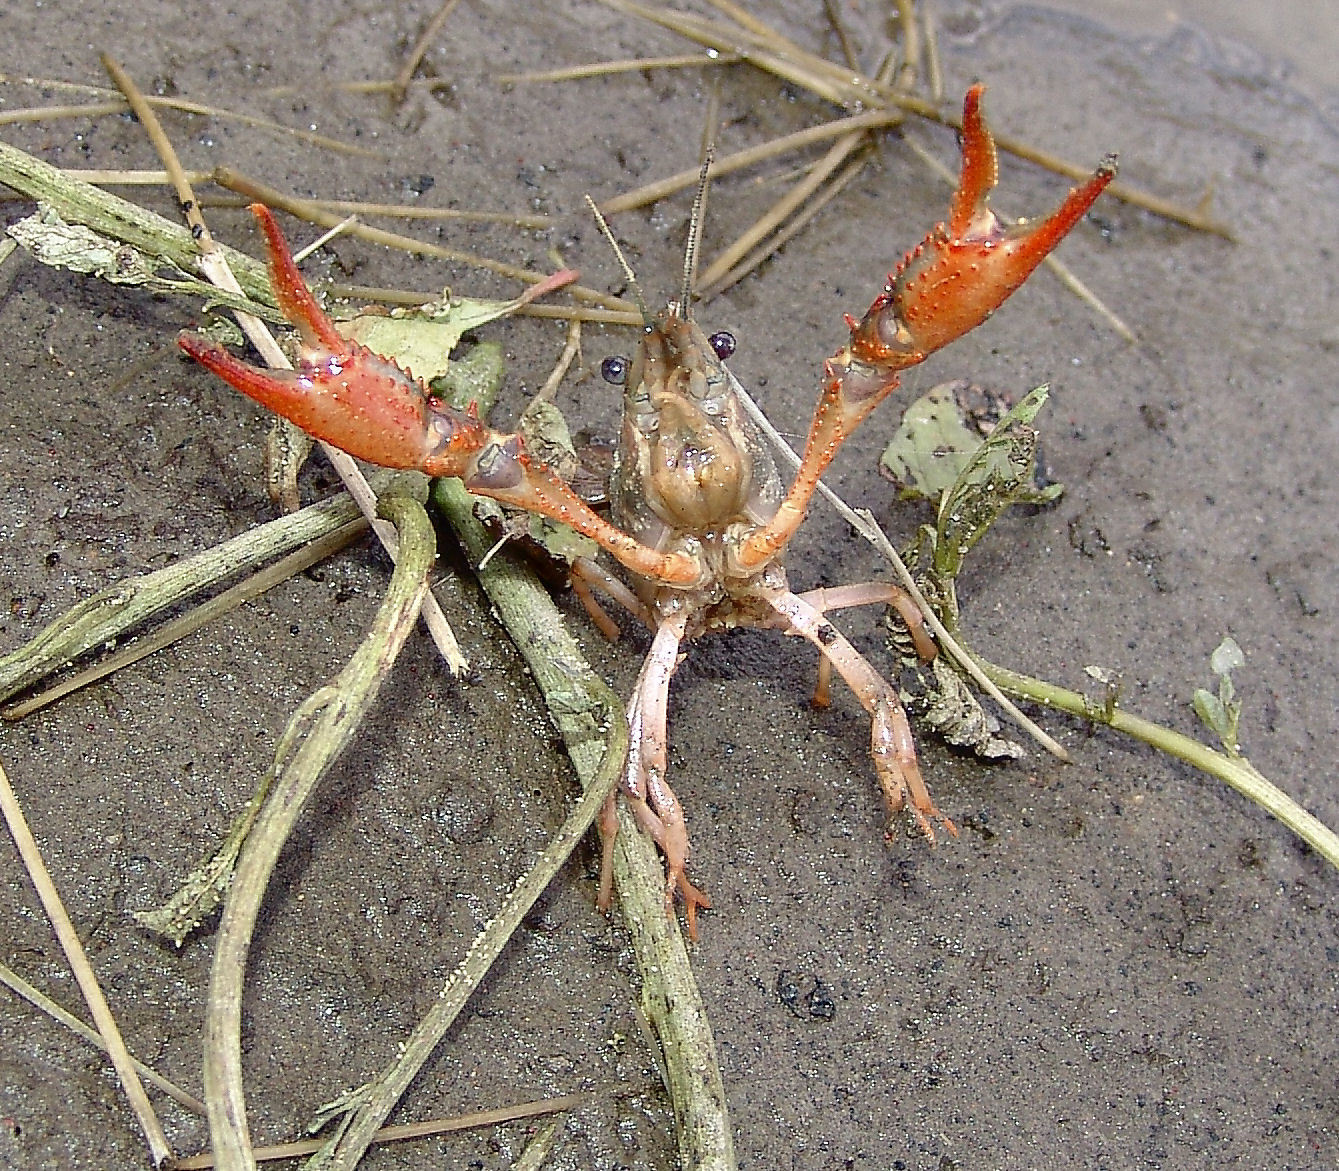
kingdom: Animalia
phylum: Arthropoda
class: Malacostraca
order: Decapoda
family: Cambaridae
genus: Procambarus
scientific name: Procambarus clarkii
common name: Red swamp crayfish
